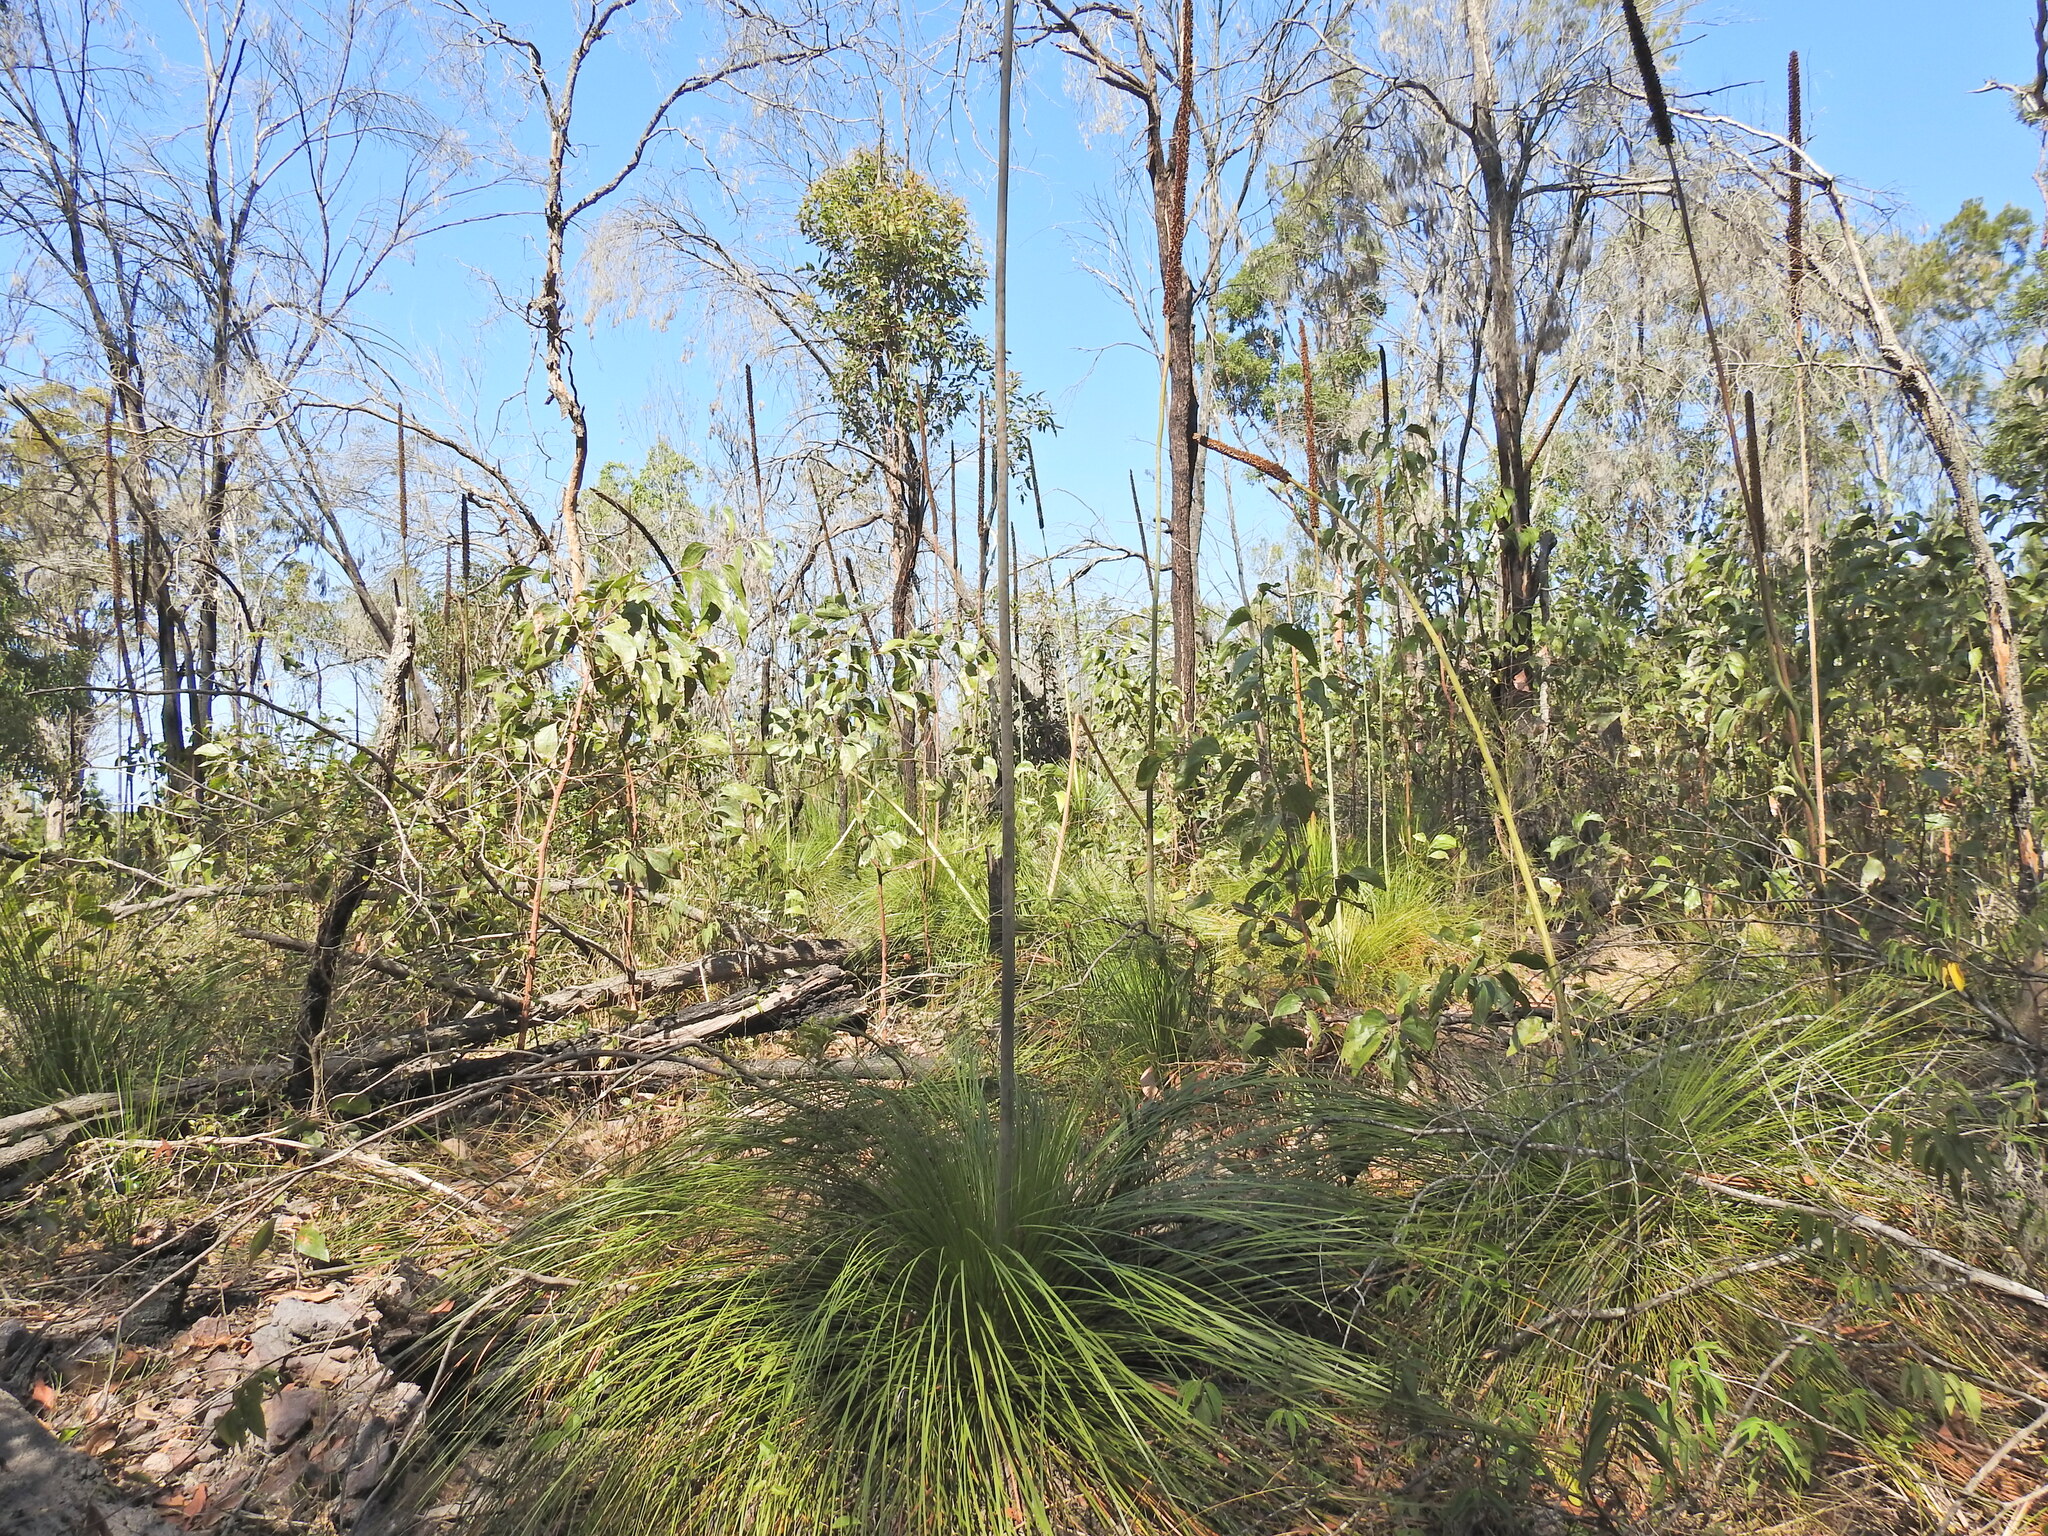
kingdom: Plantae
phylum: Tracheophyta
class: Liliopsida
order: Asparagales
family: Asphodelaceae
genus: Xanthorrhoea
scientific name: Xanthorrhoea latifolia
